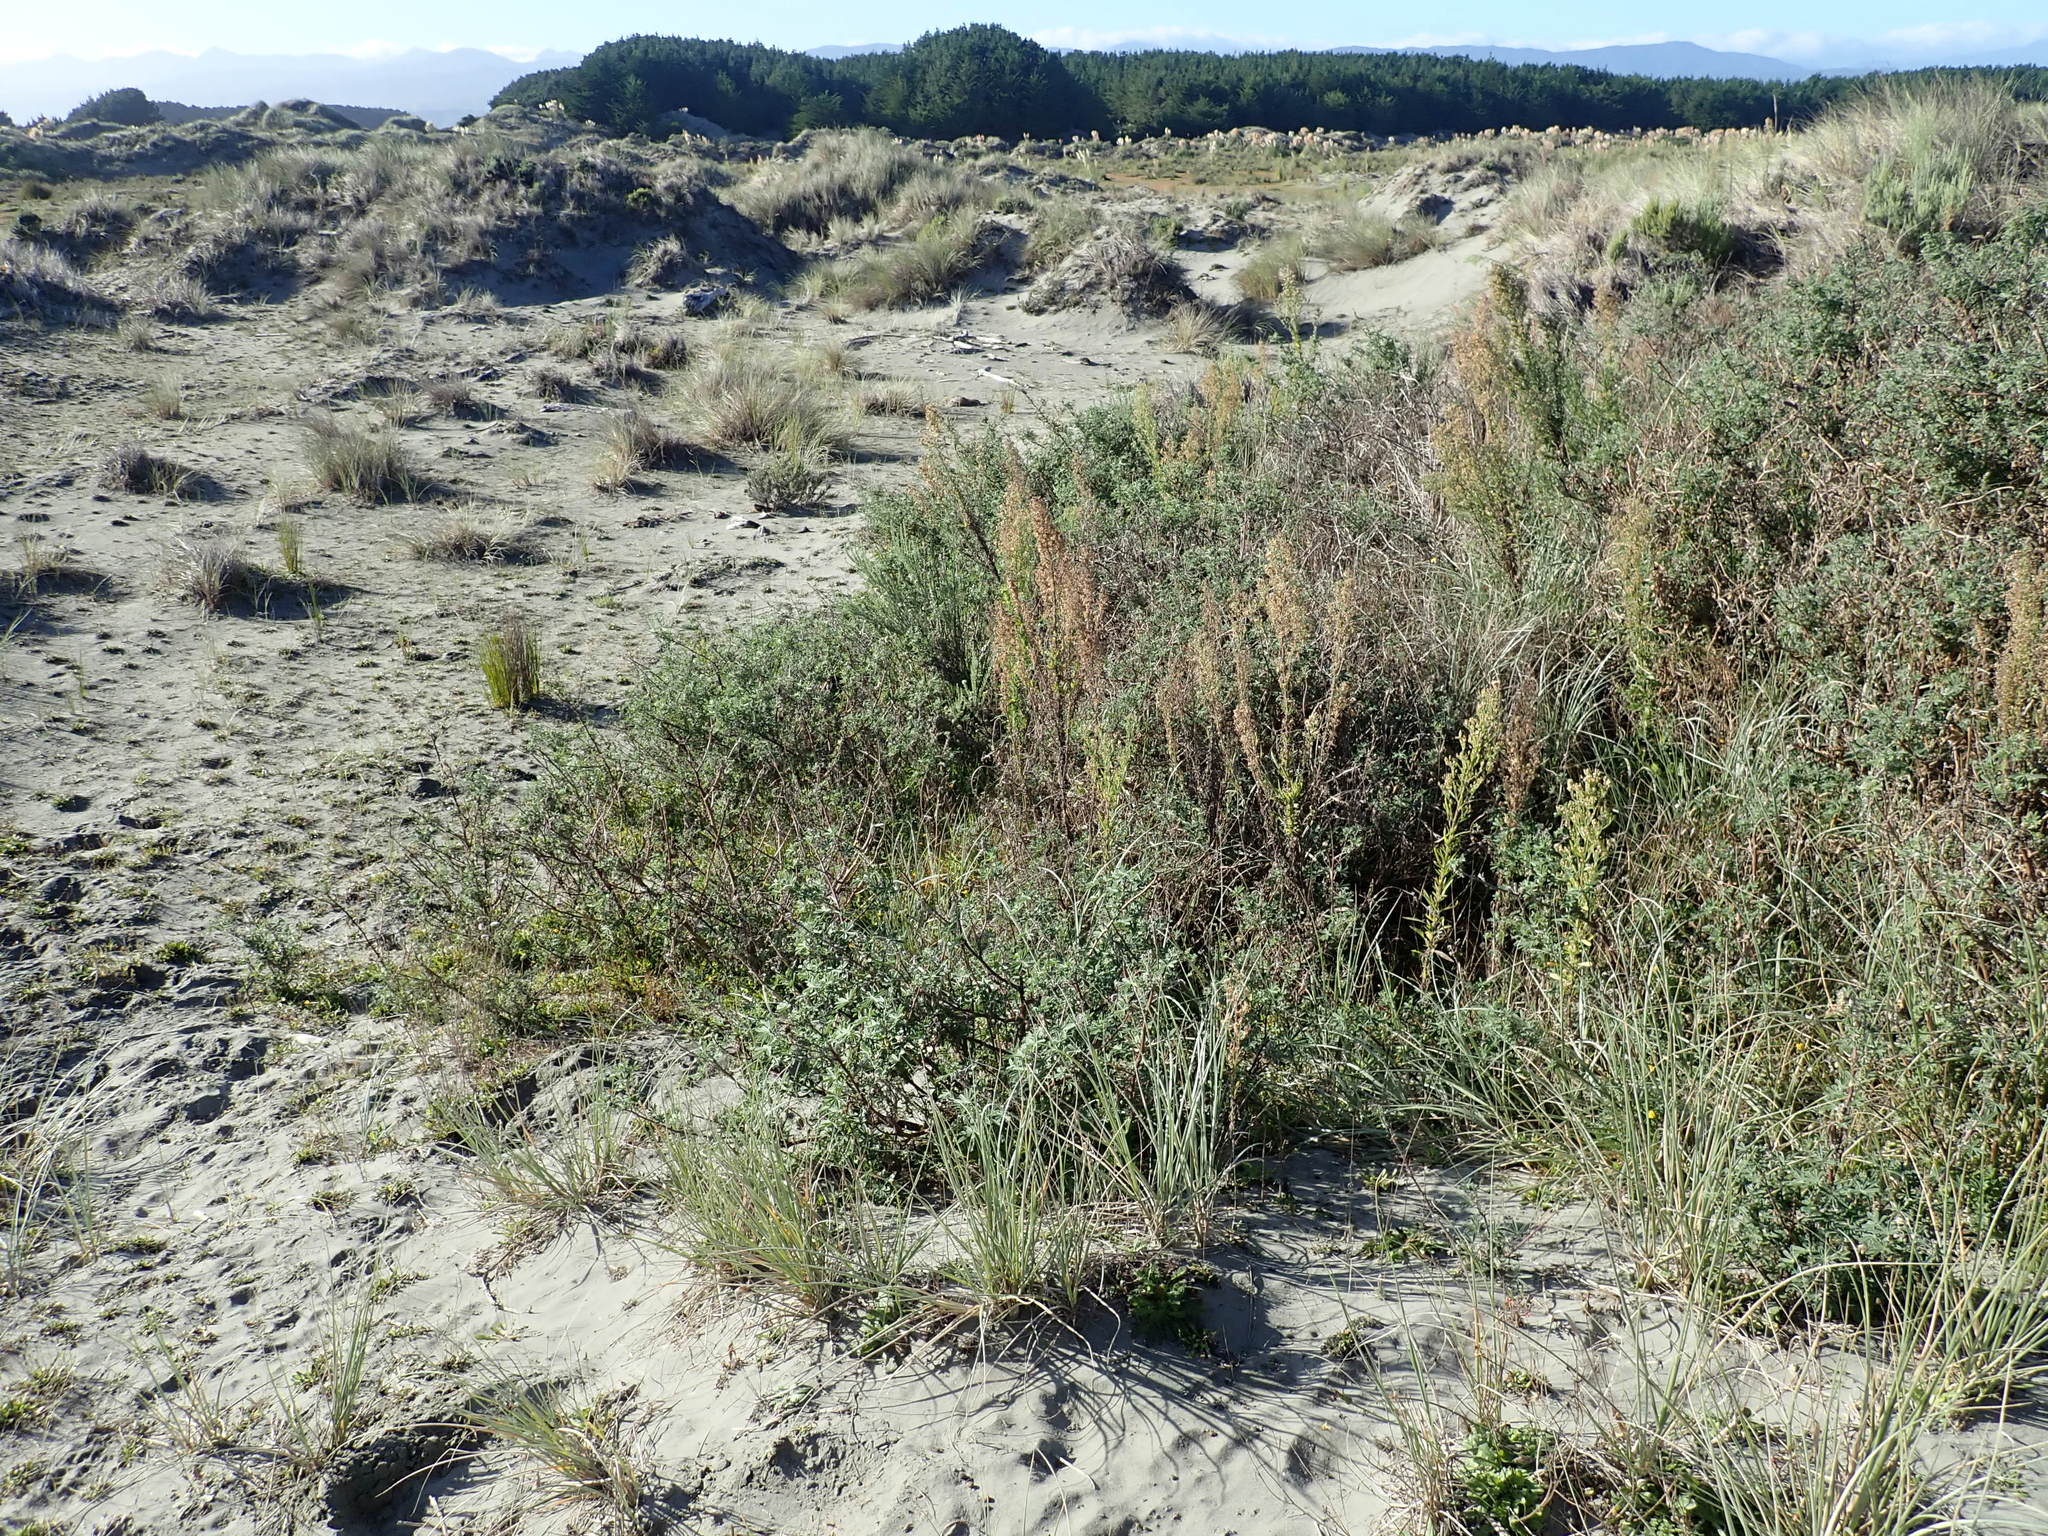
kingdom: Plantae
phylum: Tracheophyta
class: Magnoliopsida
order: Fabales
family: Fabaceae
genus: Lupinus
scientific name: Lupinus arboreus
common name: Yellow bush lupine
